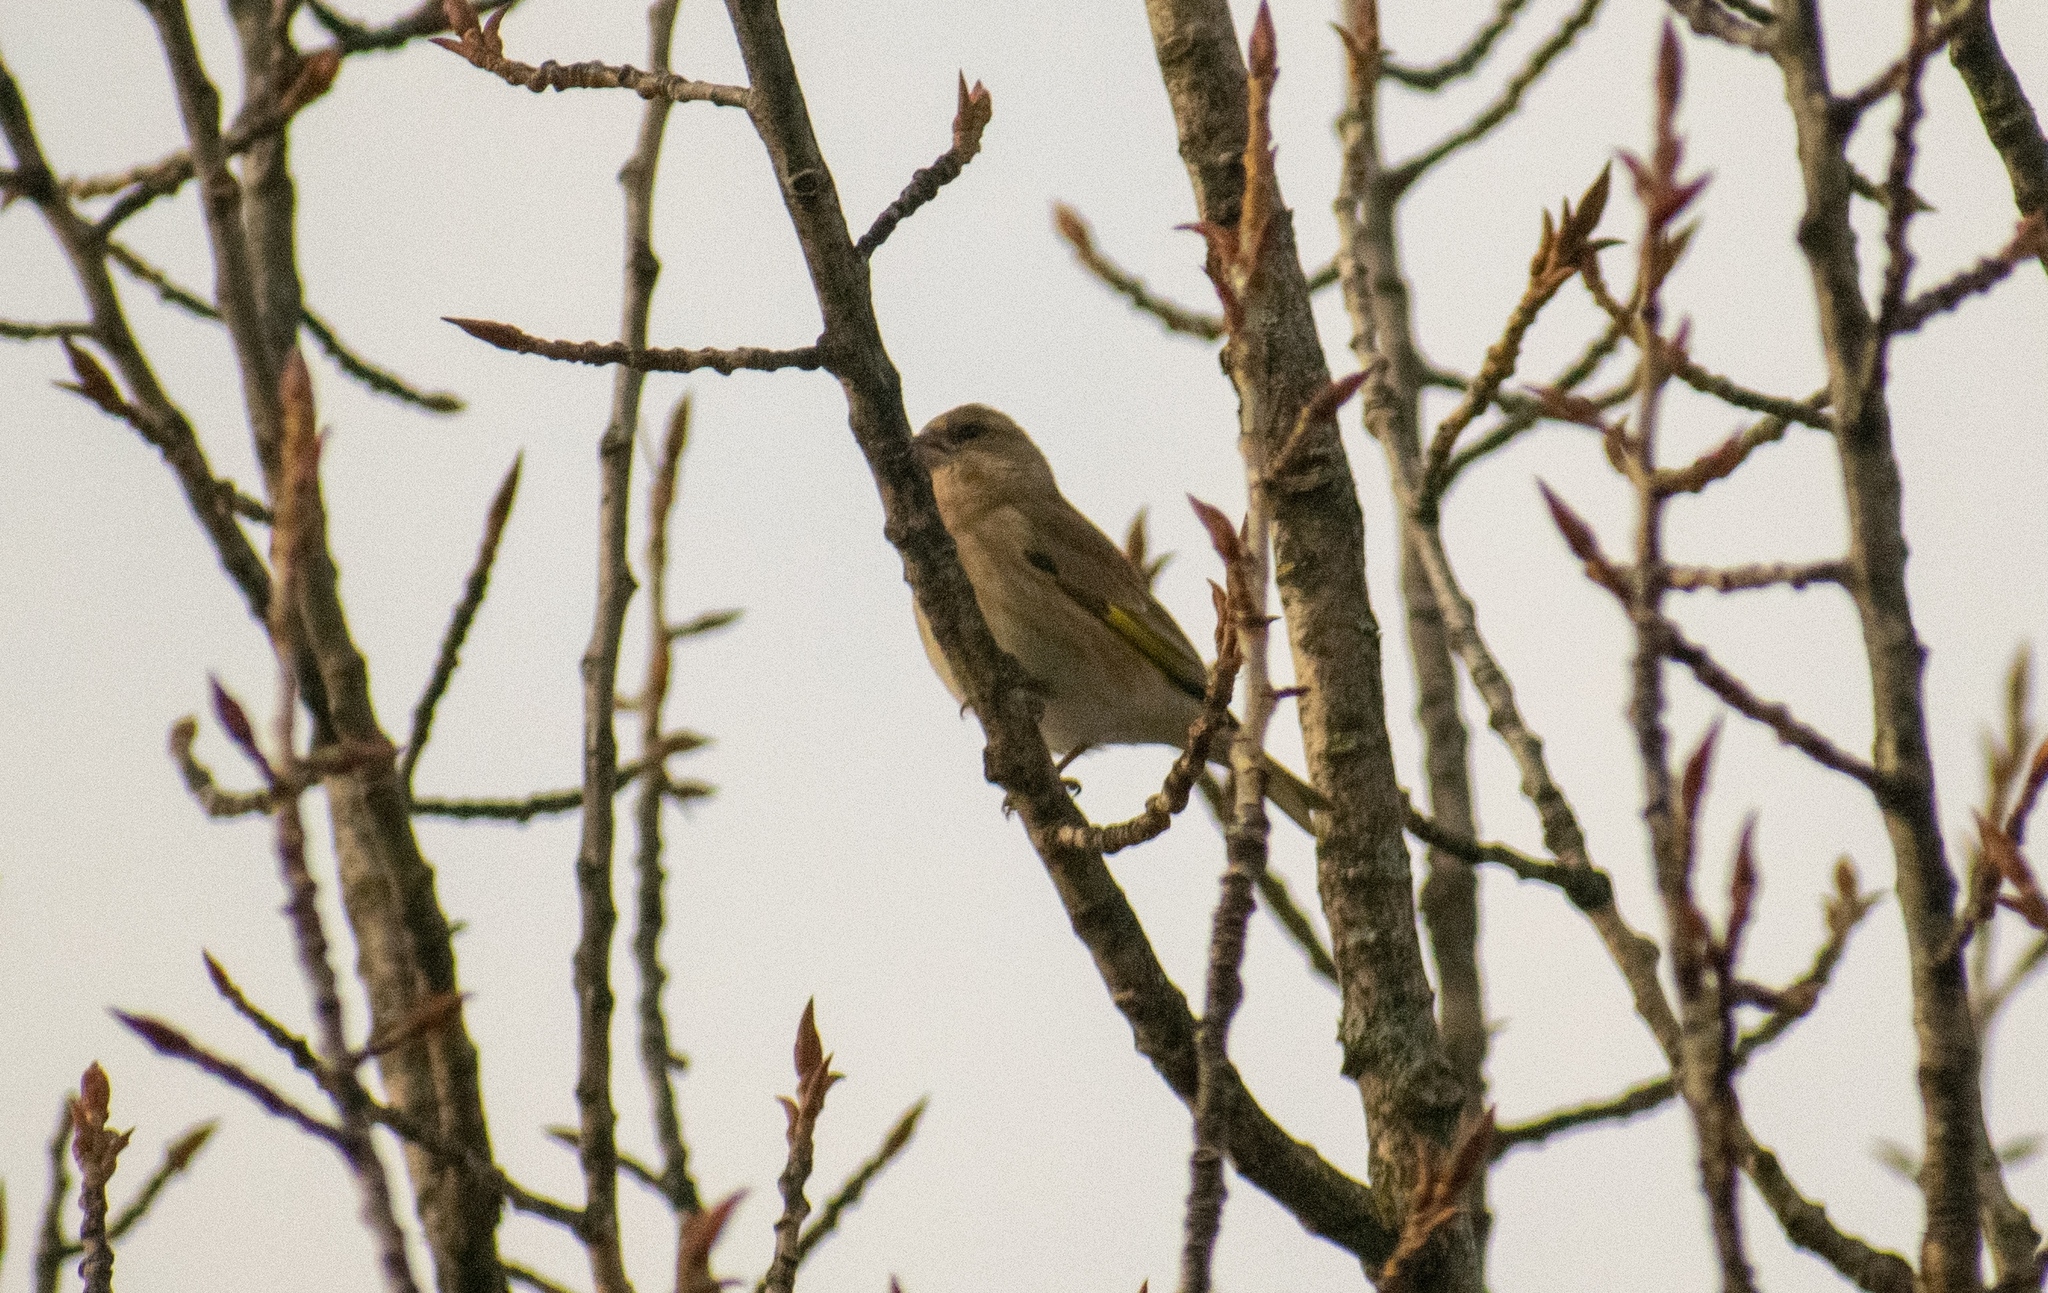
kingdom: Plantae
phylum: Tracheophyta
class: Liliopsida
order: Poales
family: Poaceae
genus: Chloris
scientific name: Chloris chloris
